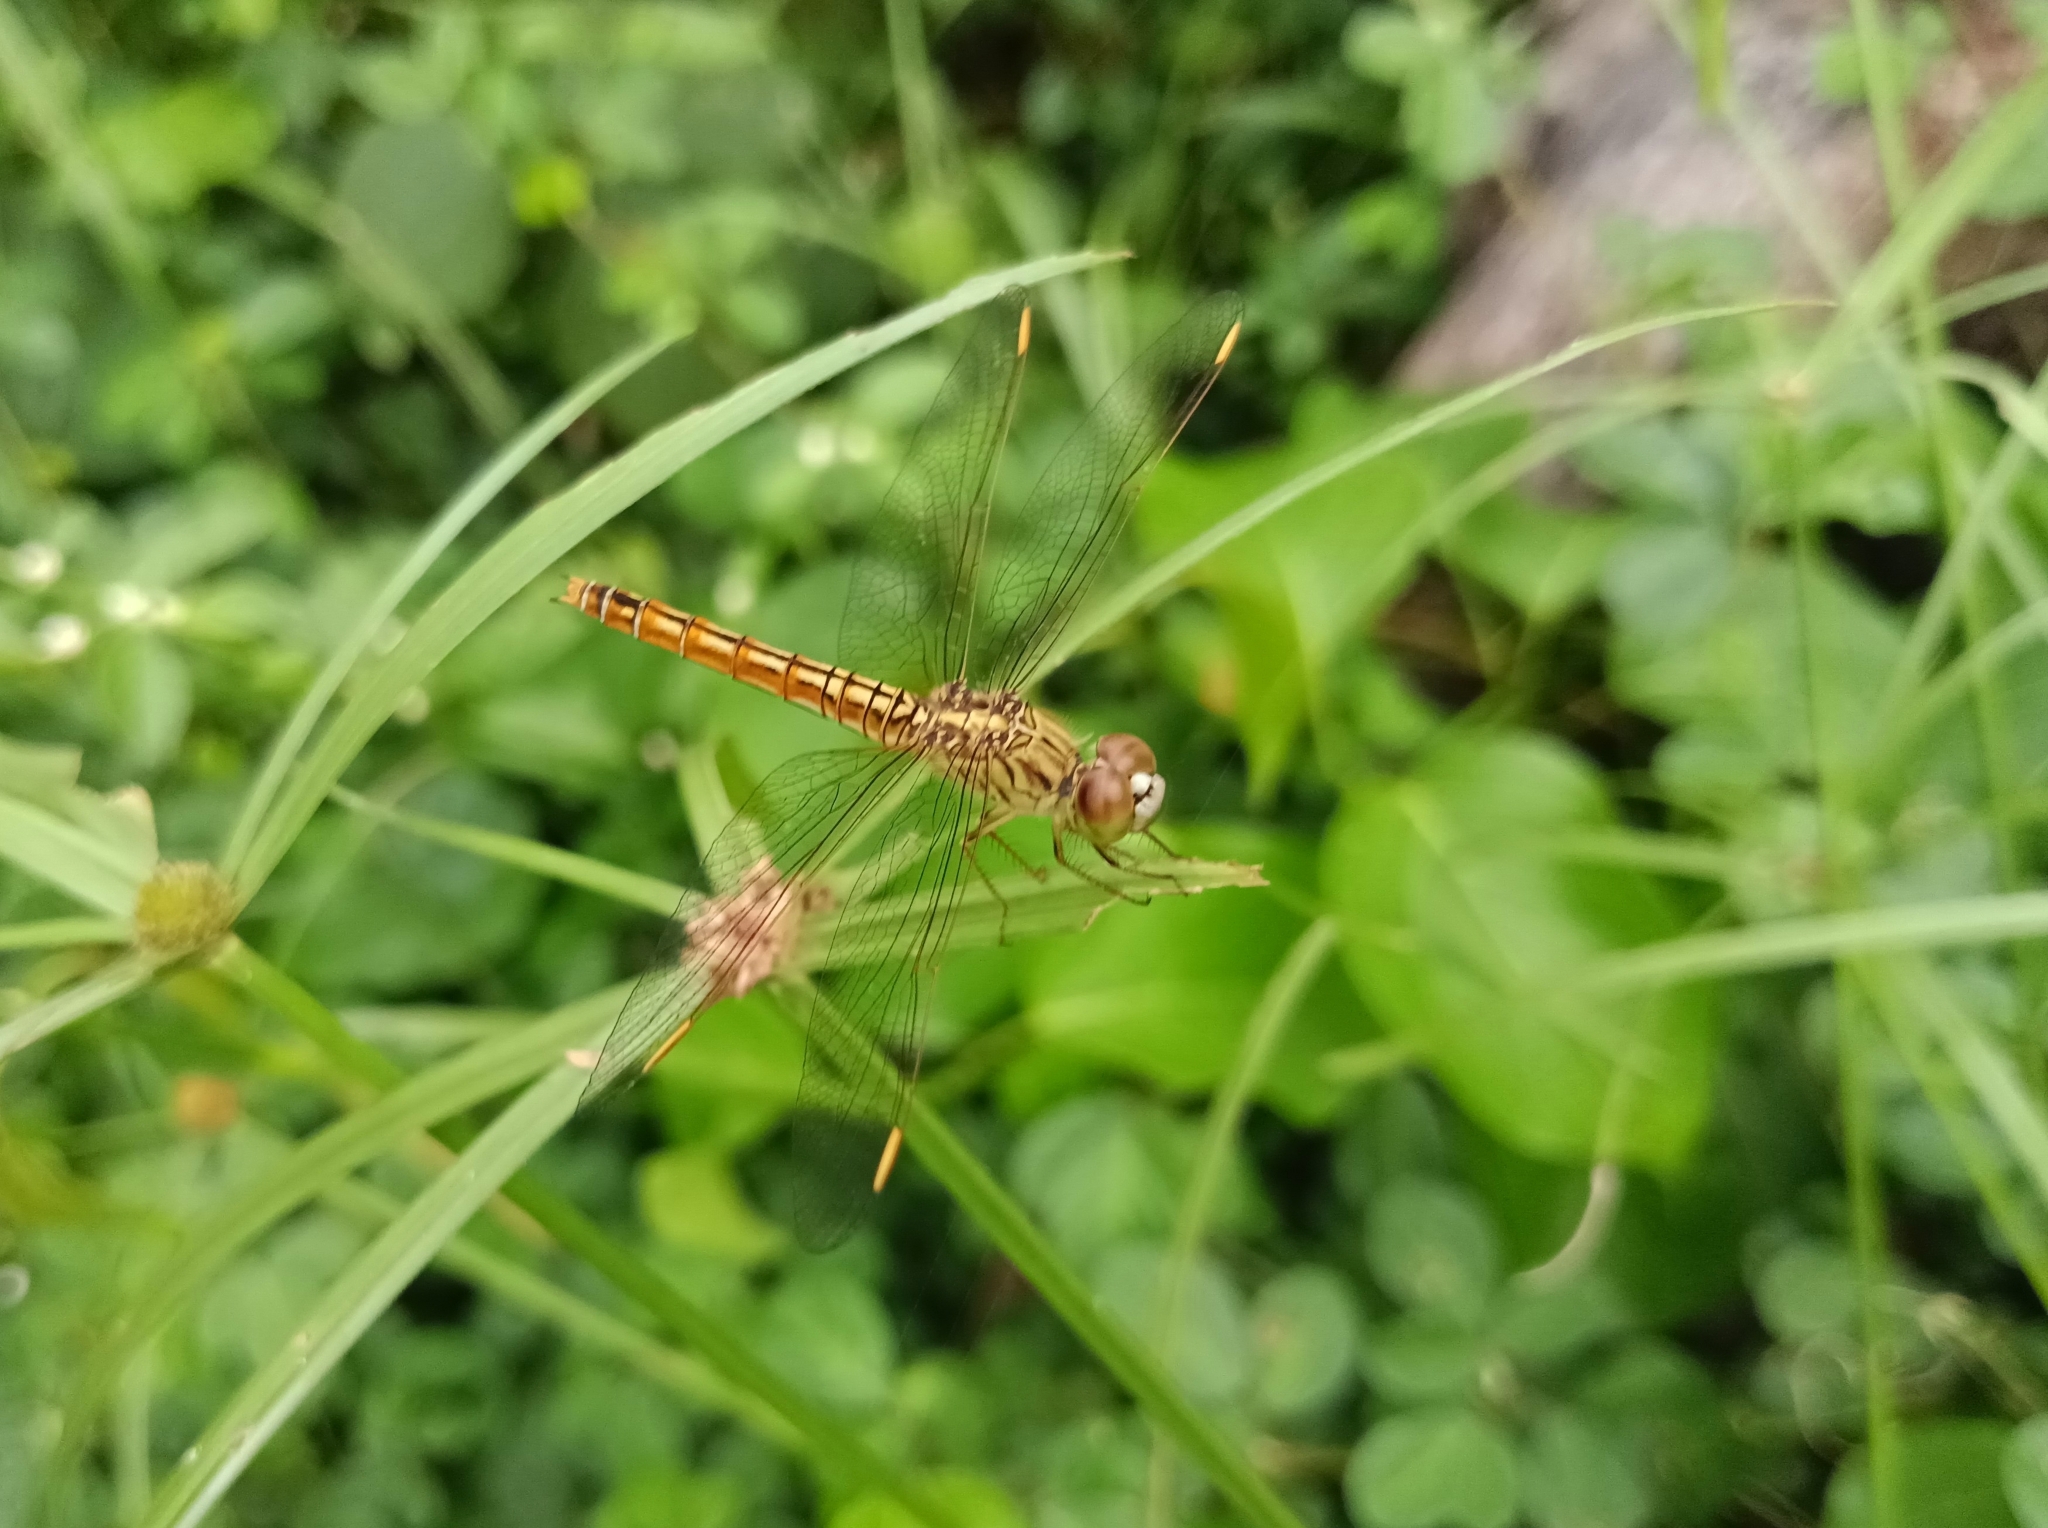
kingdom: Animalia
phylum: Arthropoda
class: Insecta
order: Odonata
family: Libellulidae
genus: Brachythemis
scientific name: Brachythemis contaminata
